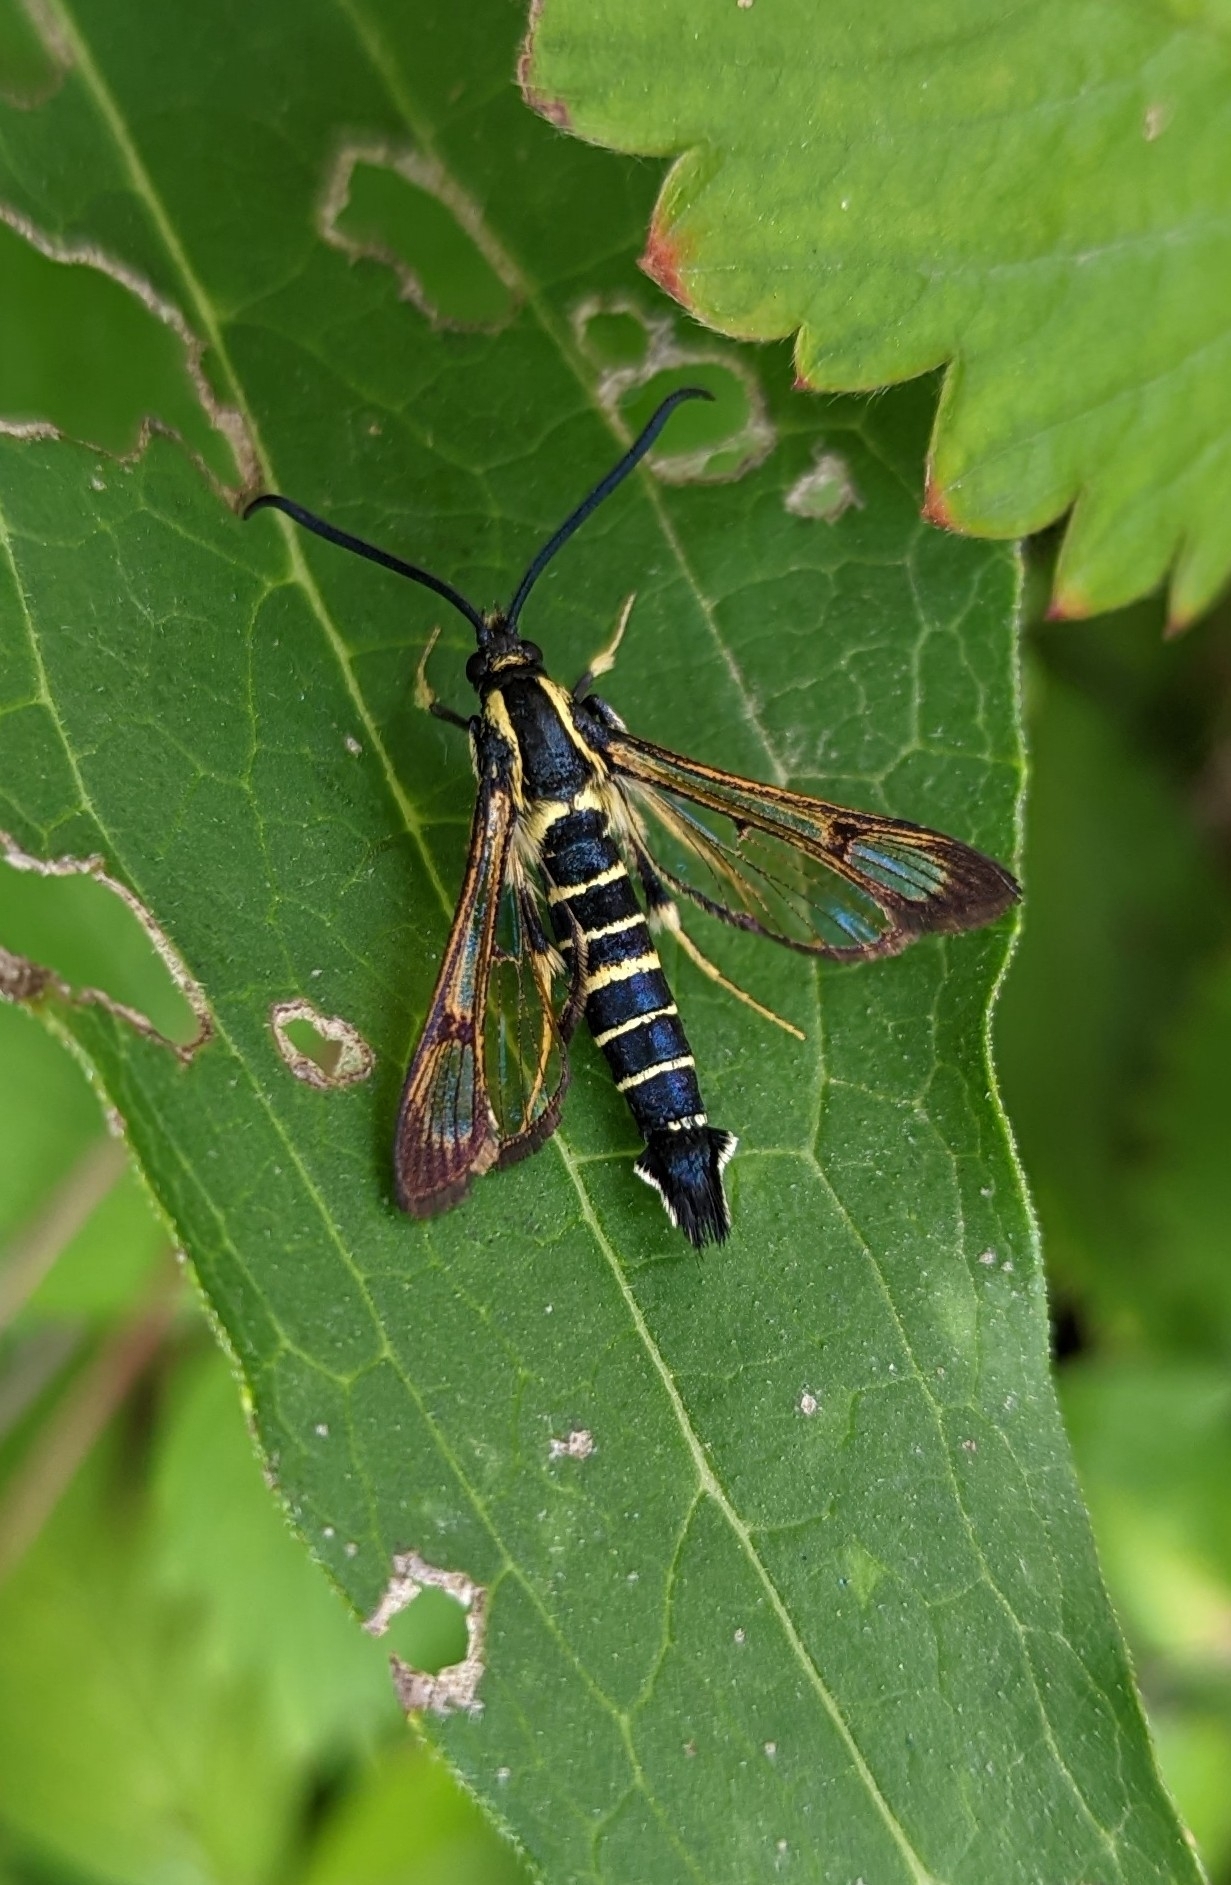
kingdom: Animalia
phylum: Arthropoda
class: Insecta
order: Lepidoptera
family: Sesiidae
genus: Synanthedon
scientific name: Synanthedon exitiosa
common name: Peachtree borer moth
